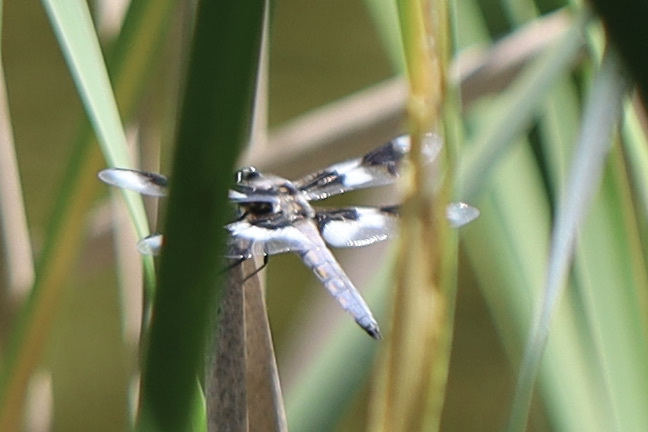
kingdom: Animalia
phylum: Arthropoda
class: Insecta
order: Odonata
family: Libellulidae
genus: Libellula
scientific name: Libellula forensis
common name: Eight-spotted skimmer
